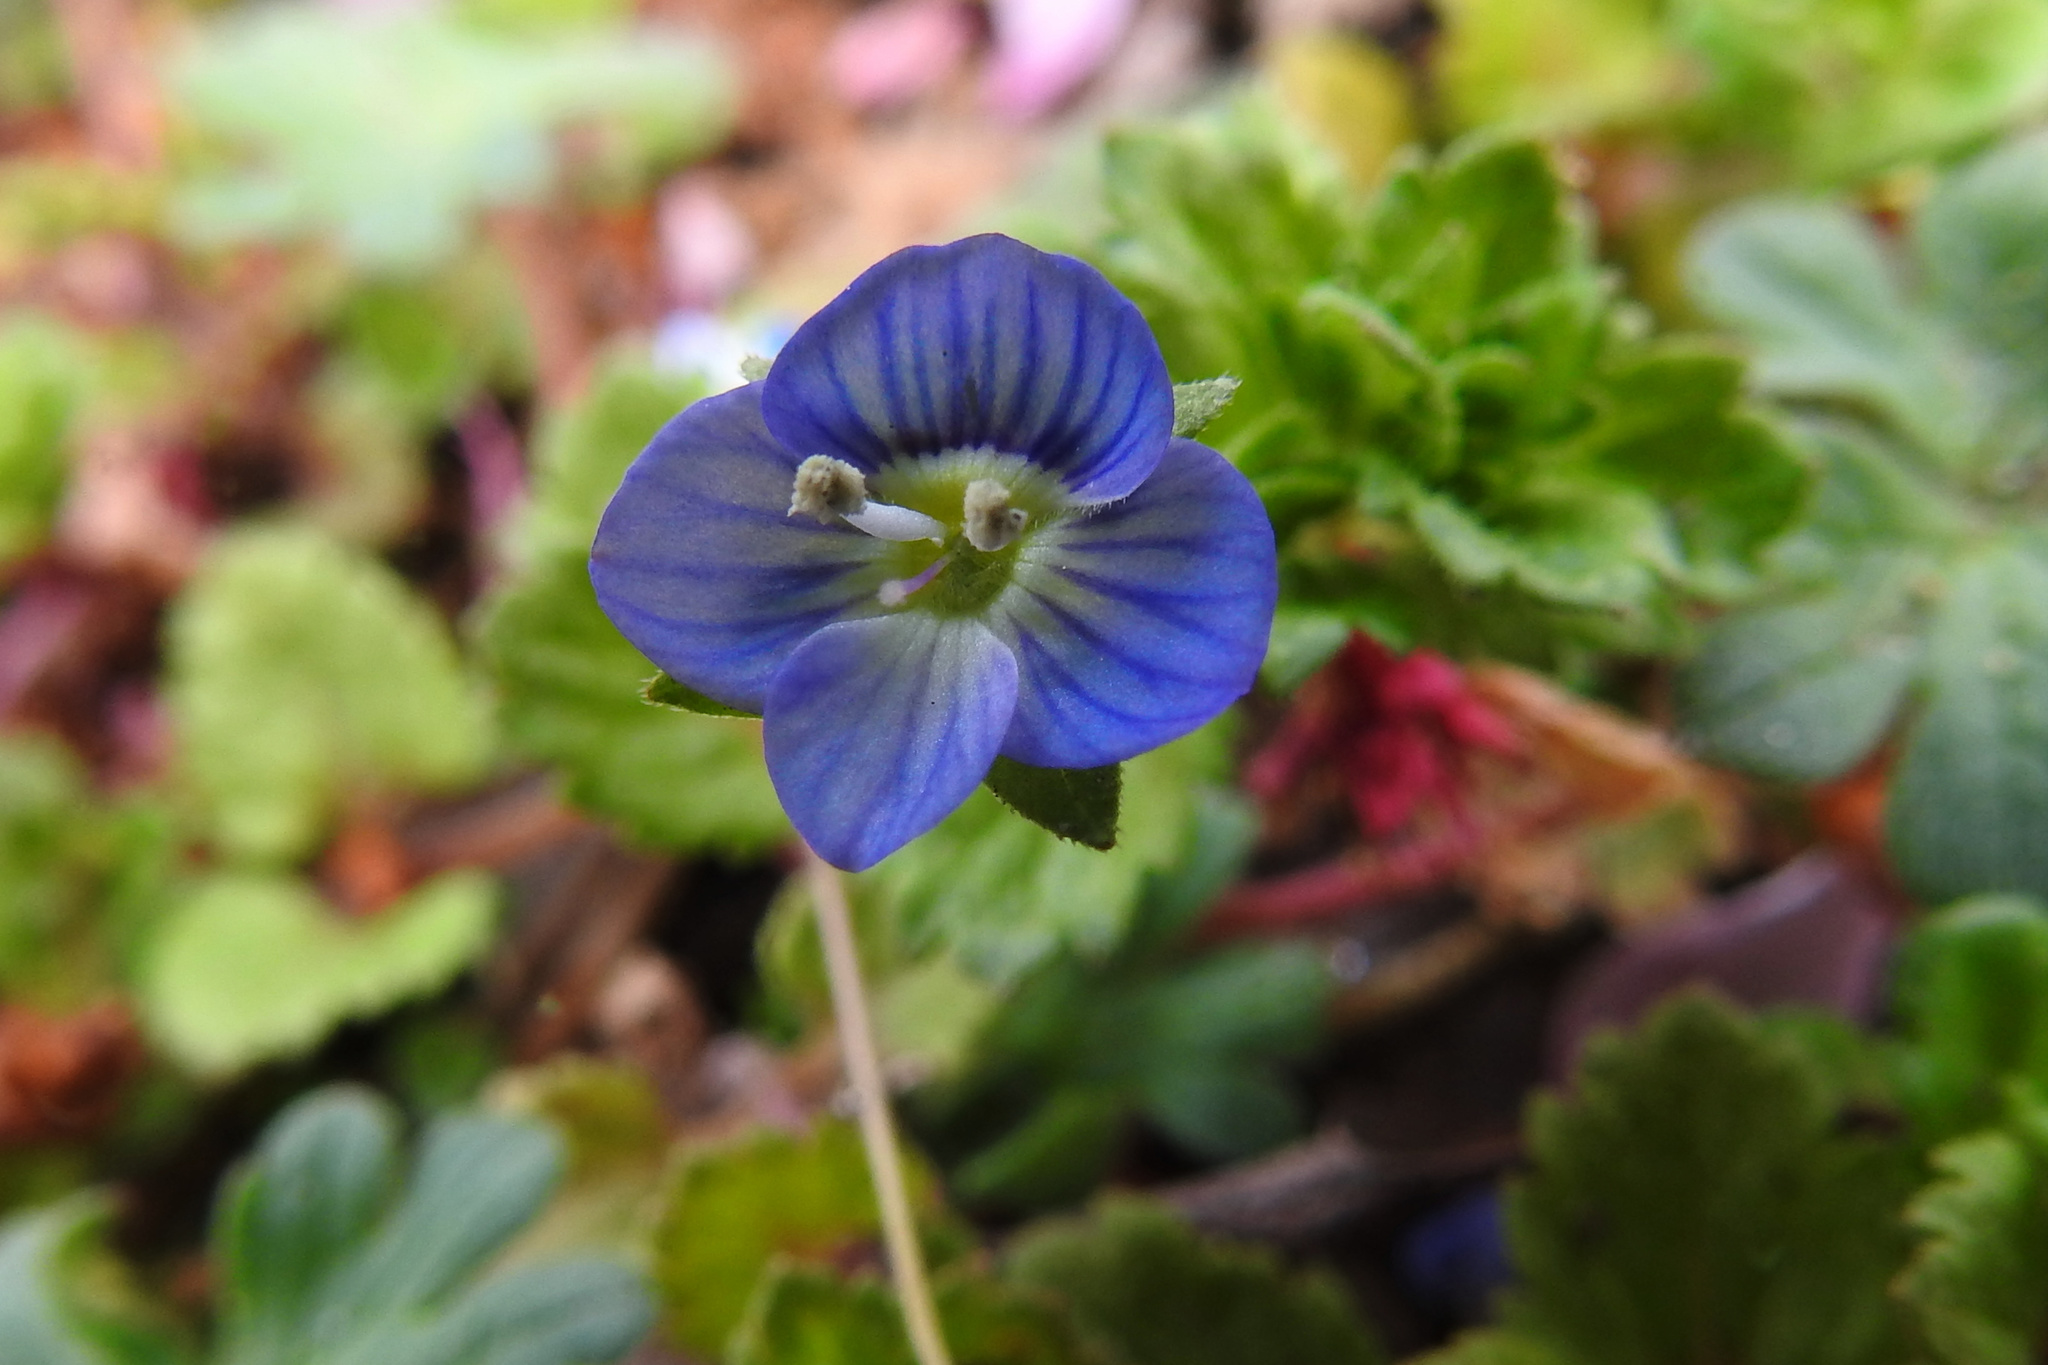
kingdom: Plantae
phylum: Tracheophyta
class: Magnoliopsida
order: Lamiales
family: Plantaginaceae
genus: Veronica
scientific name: Veronica persica
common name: Common field-speedwell
